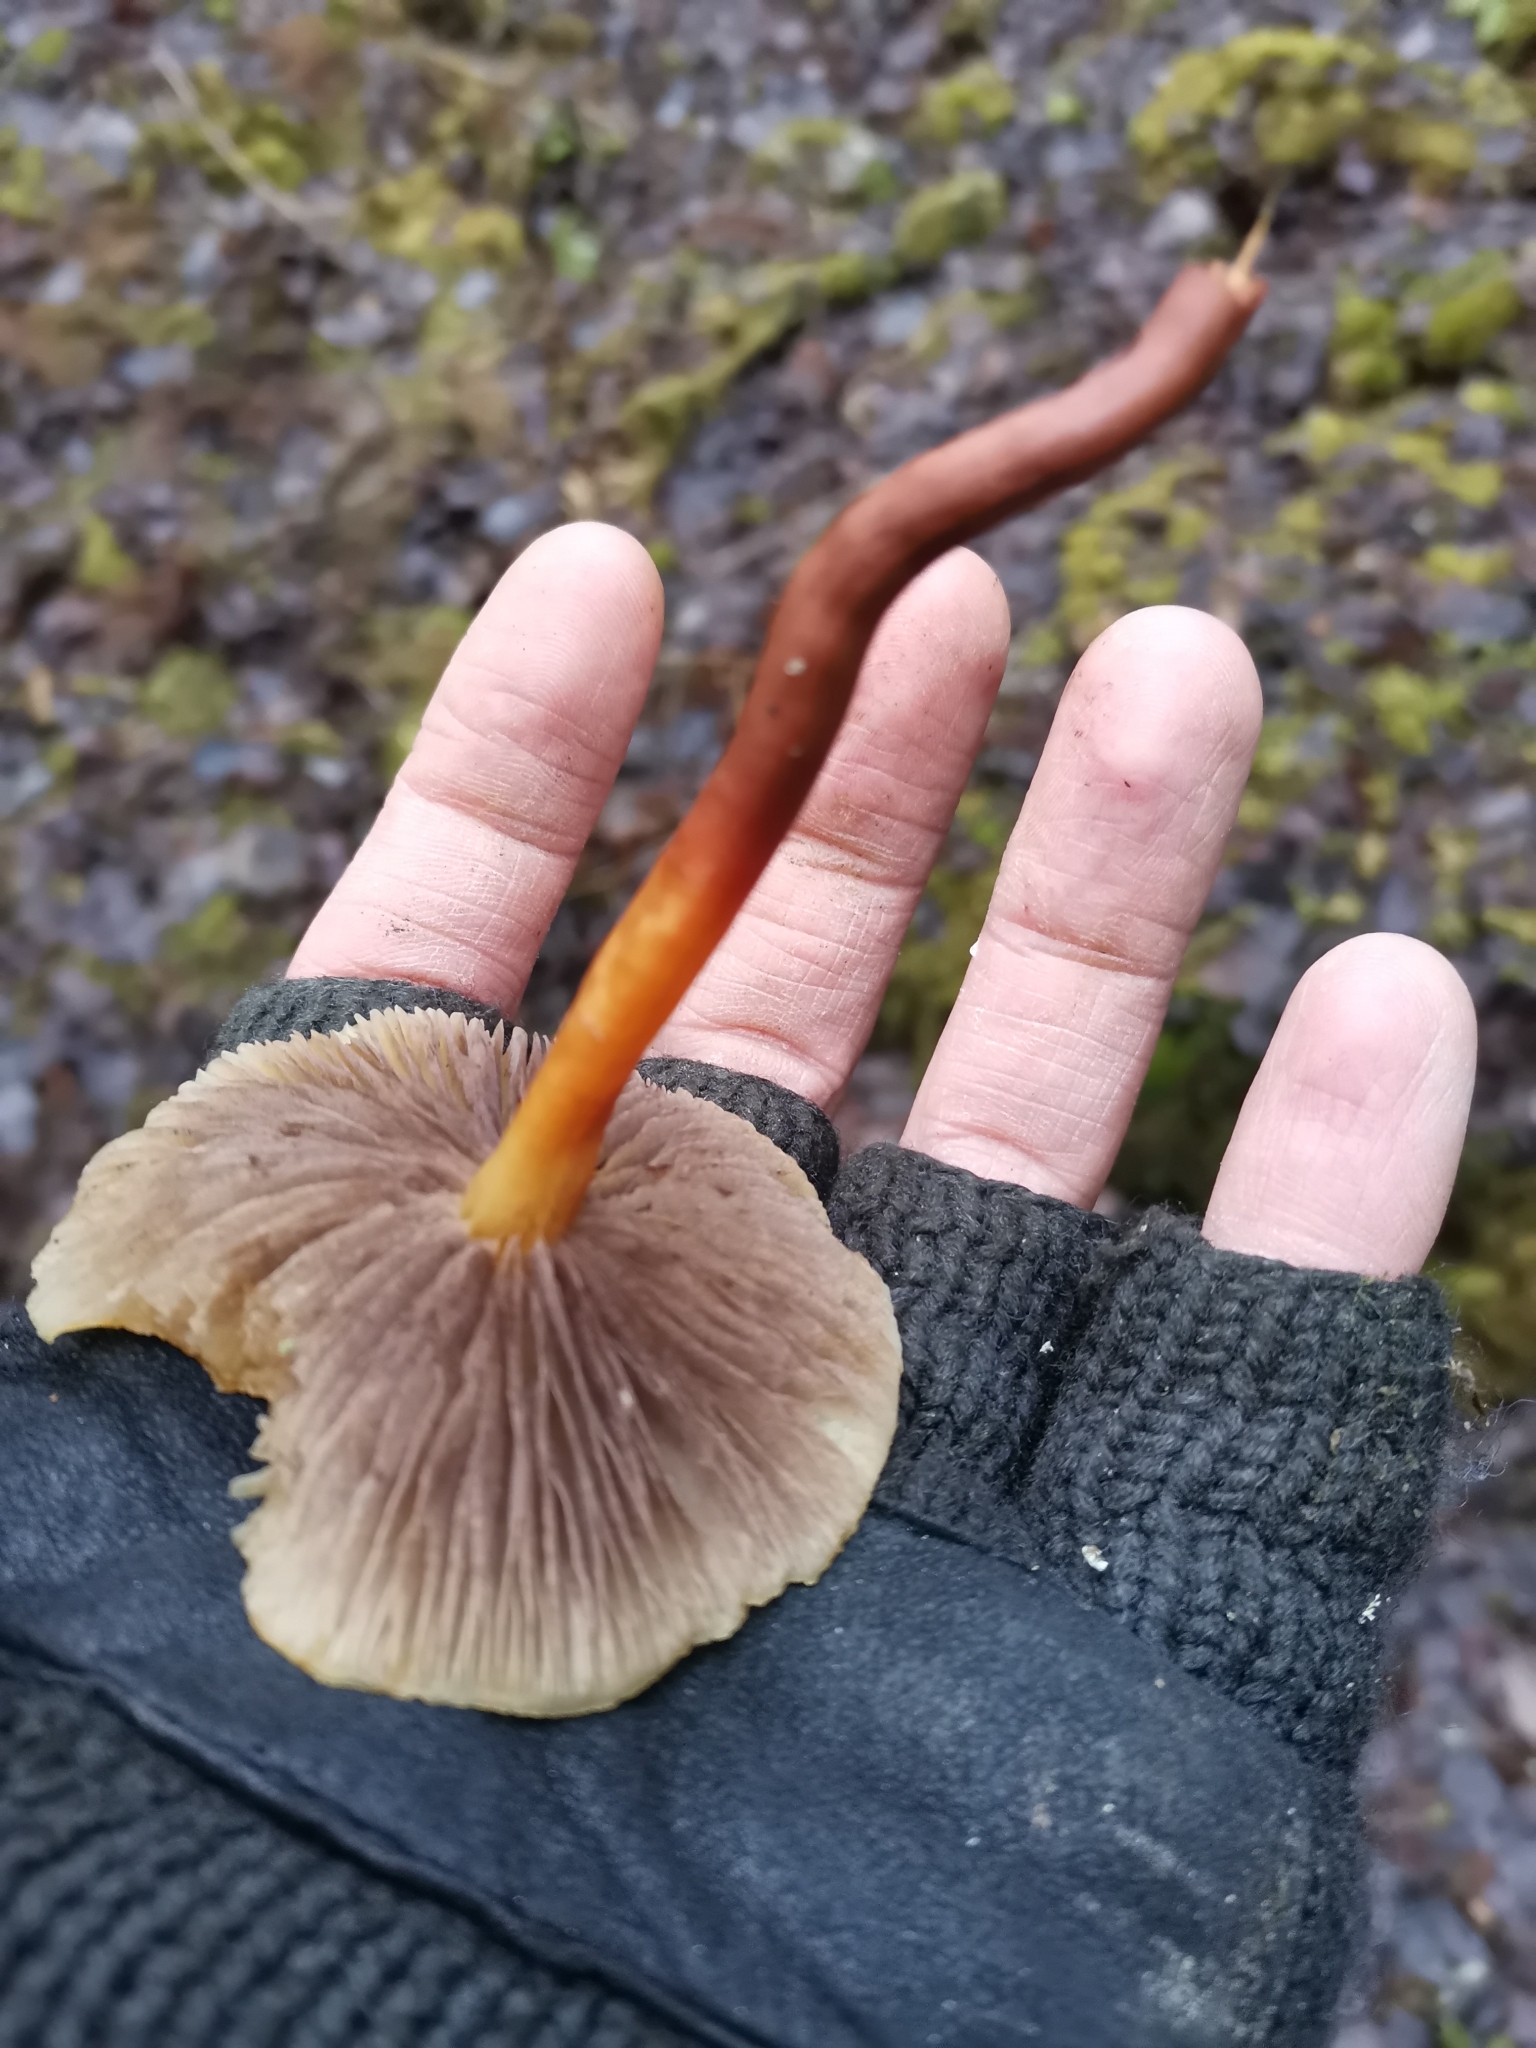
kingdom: Fungi
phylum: Basidiomycota
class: Agaricomycetes
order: Agaricales
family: Strophariaceae
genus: Hypholoma
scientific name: Hypholoma capnoides
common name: Conifer tuft
